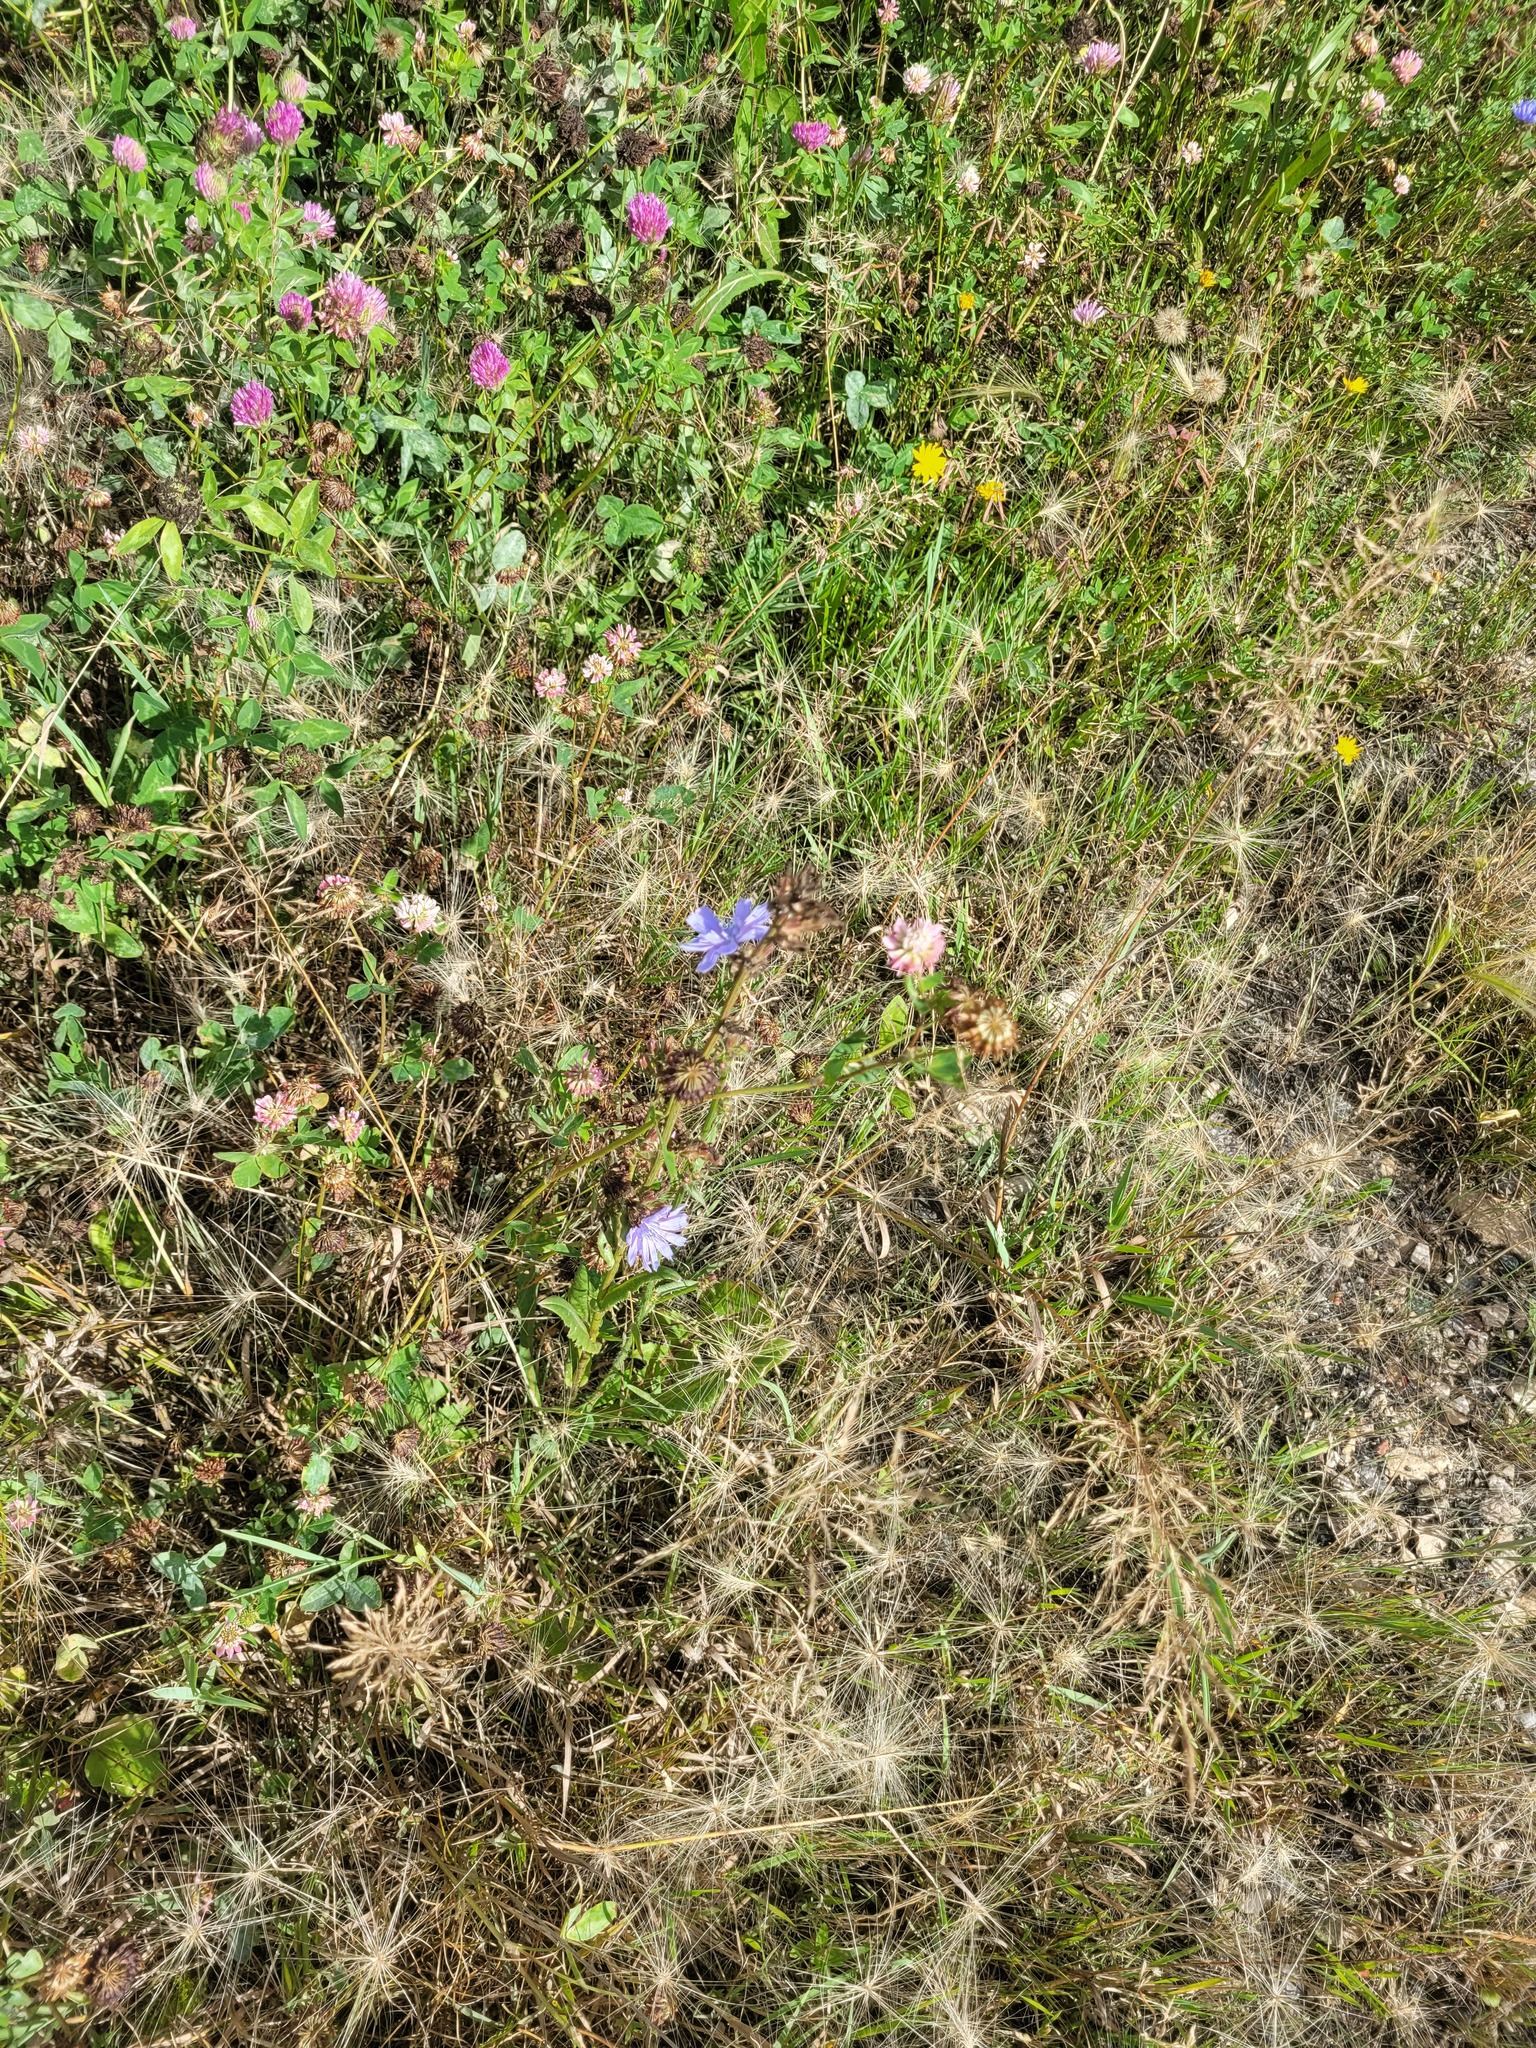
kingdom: Plantae
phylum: Tracheophyta
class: Magnoliopsida
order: Asterales
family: Asteraceae
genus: Cichorium
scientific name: Cichorium intybus
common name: Chicory
